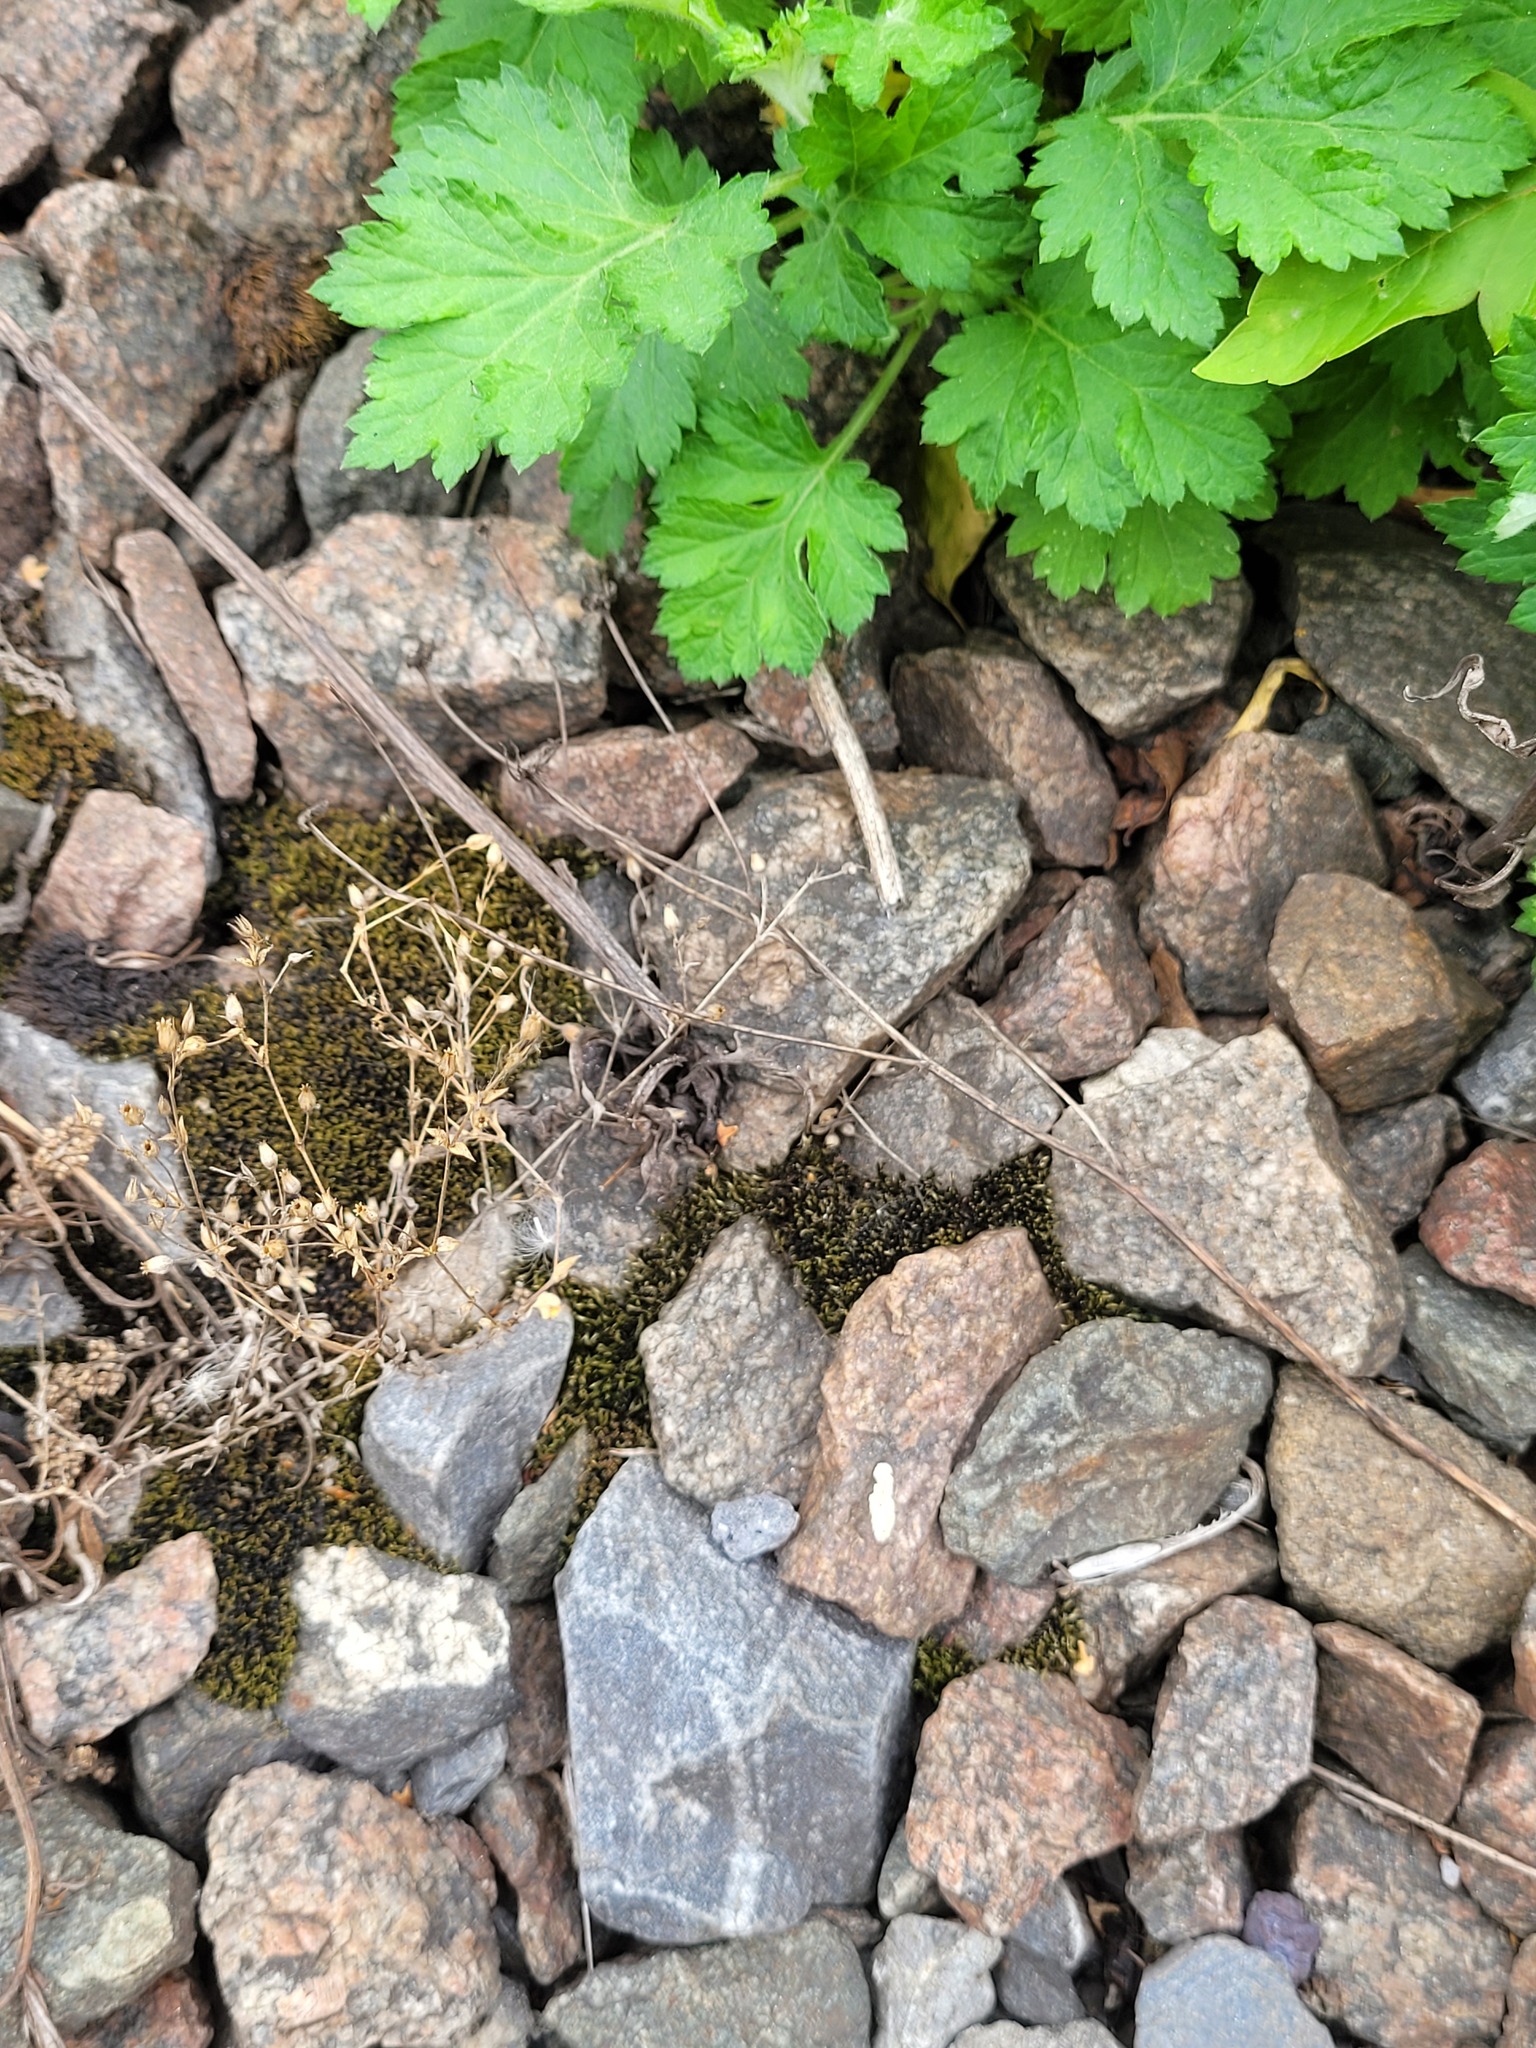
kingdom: Plantae
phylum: Tracheophyta
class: Magnoliopsida
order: Caryophyllales
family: Caryophyllaceae
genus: Arenaria
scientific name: Arenaria serpyllifolia
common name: Thyme-leaved sandwort
